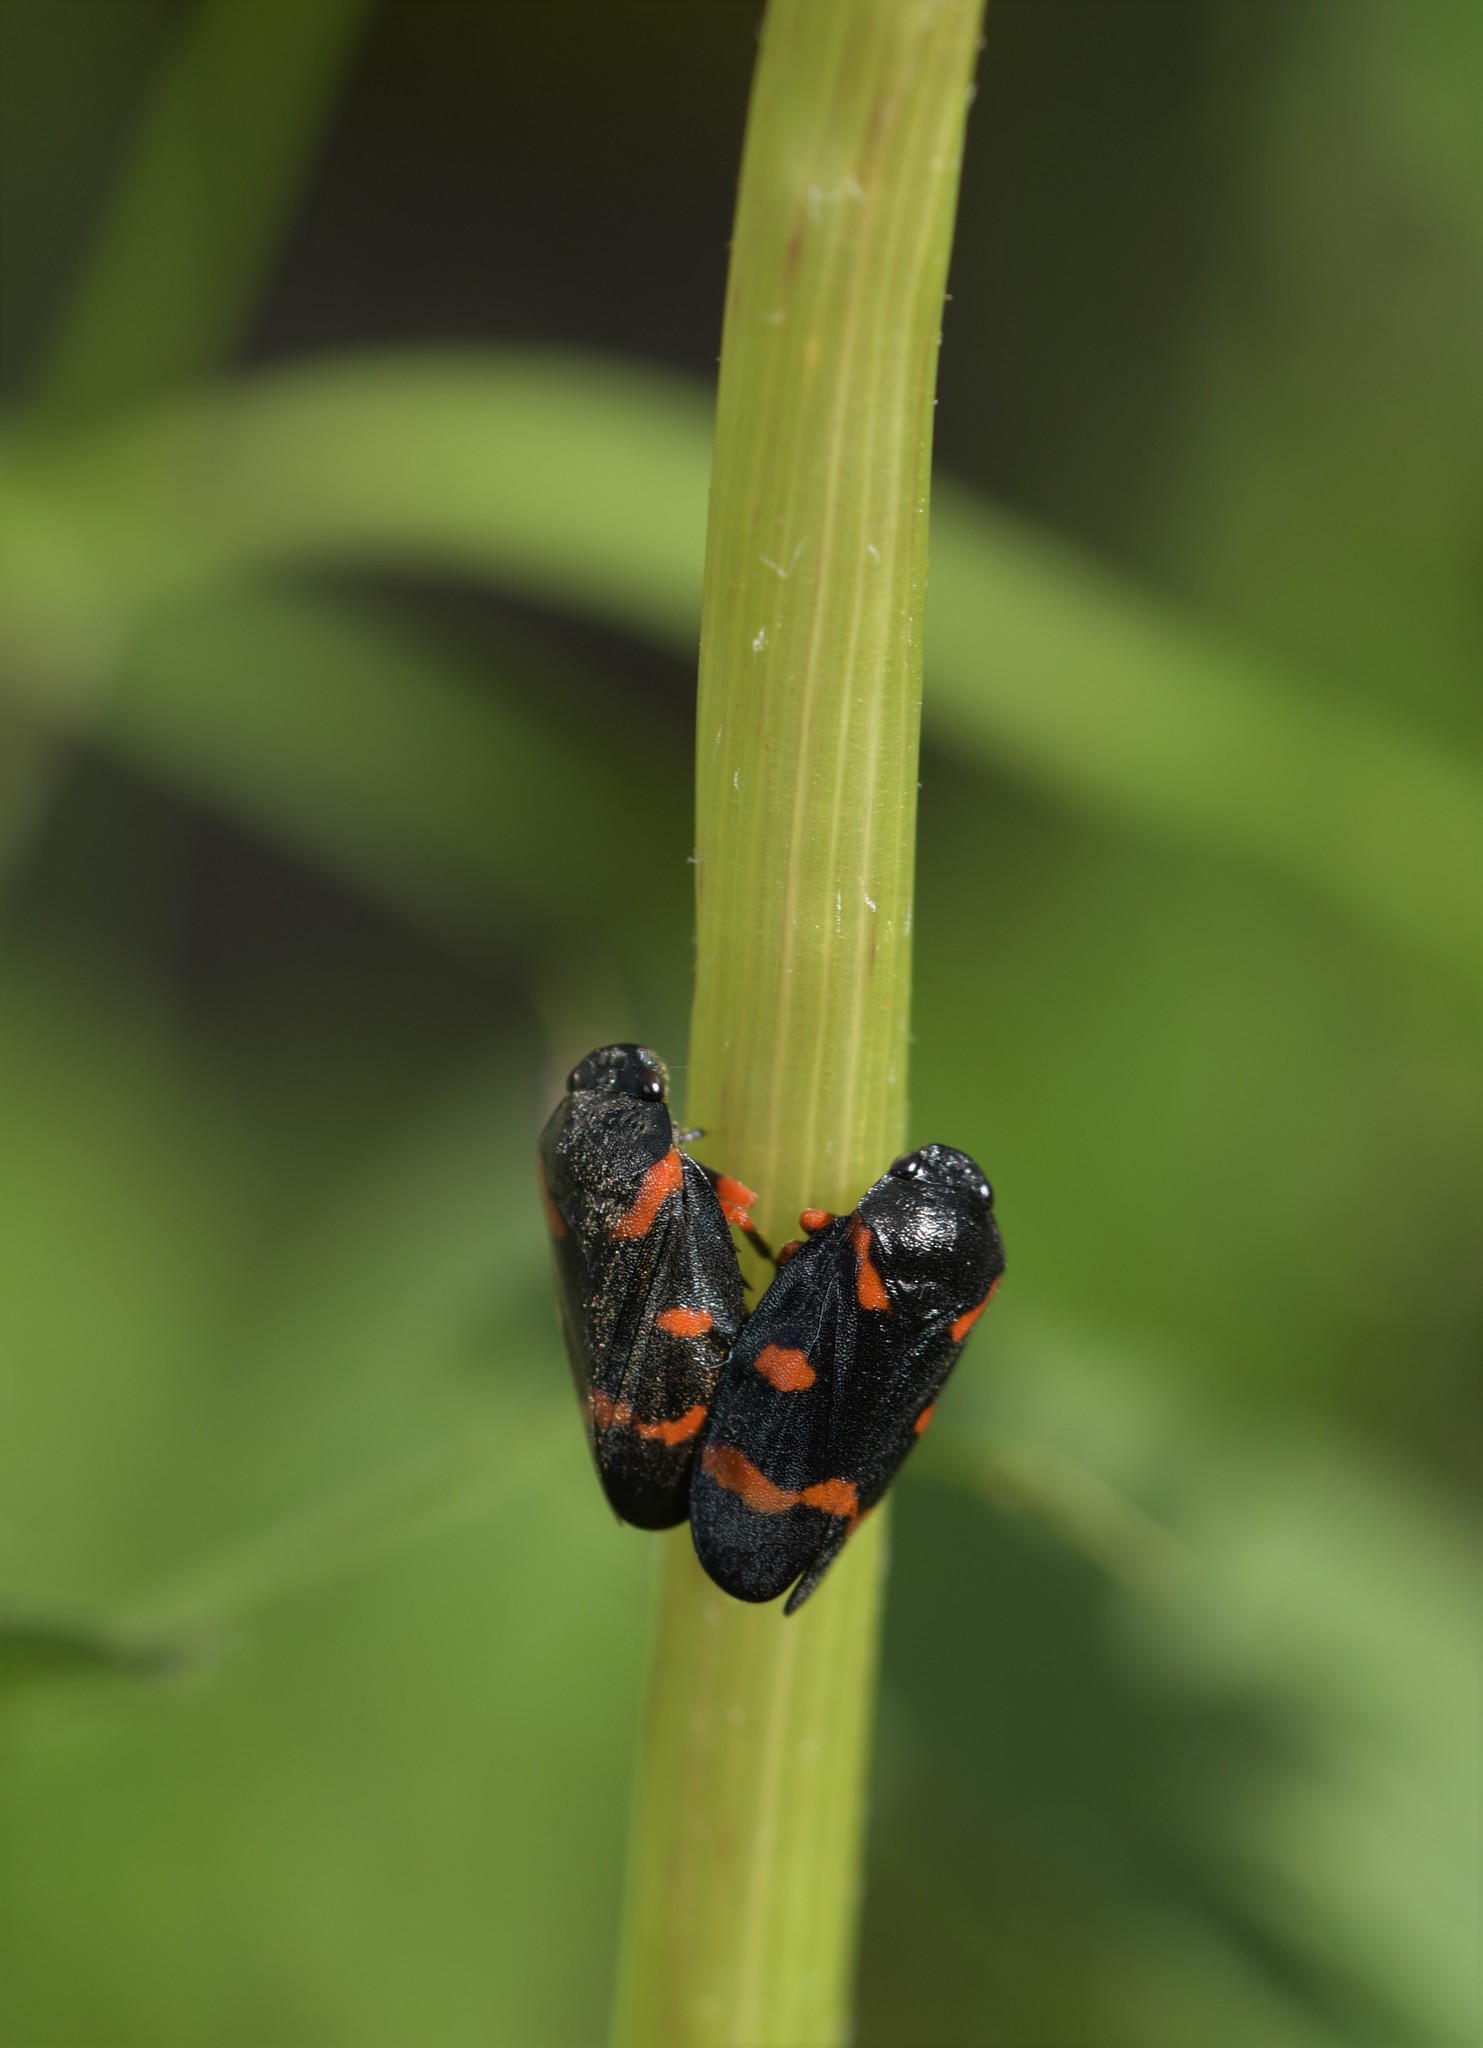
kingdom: Animalia
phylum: Arthropoda
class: Insecta
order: Hemiptera
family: Cercopidae
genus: Cercopis
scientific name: Cercopis intermedia
